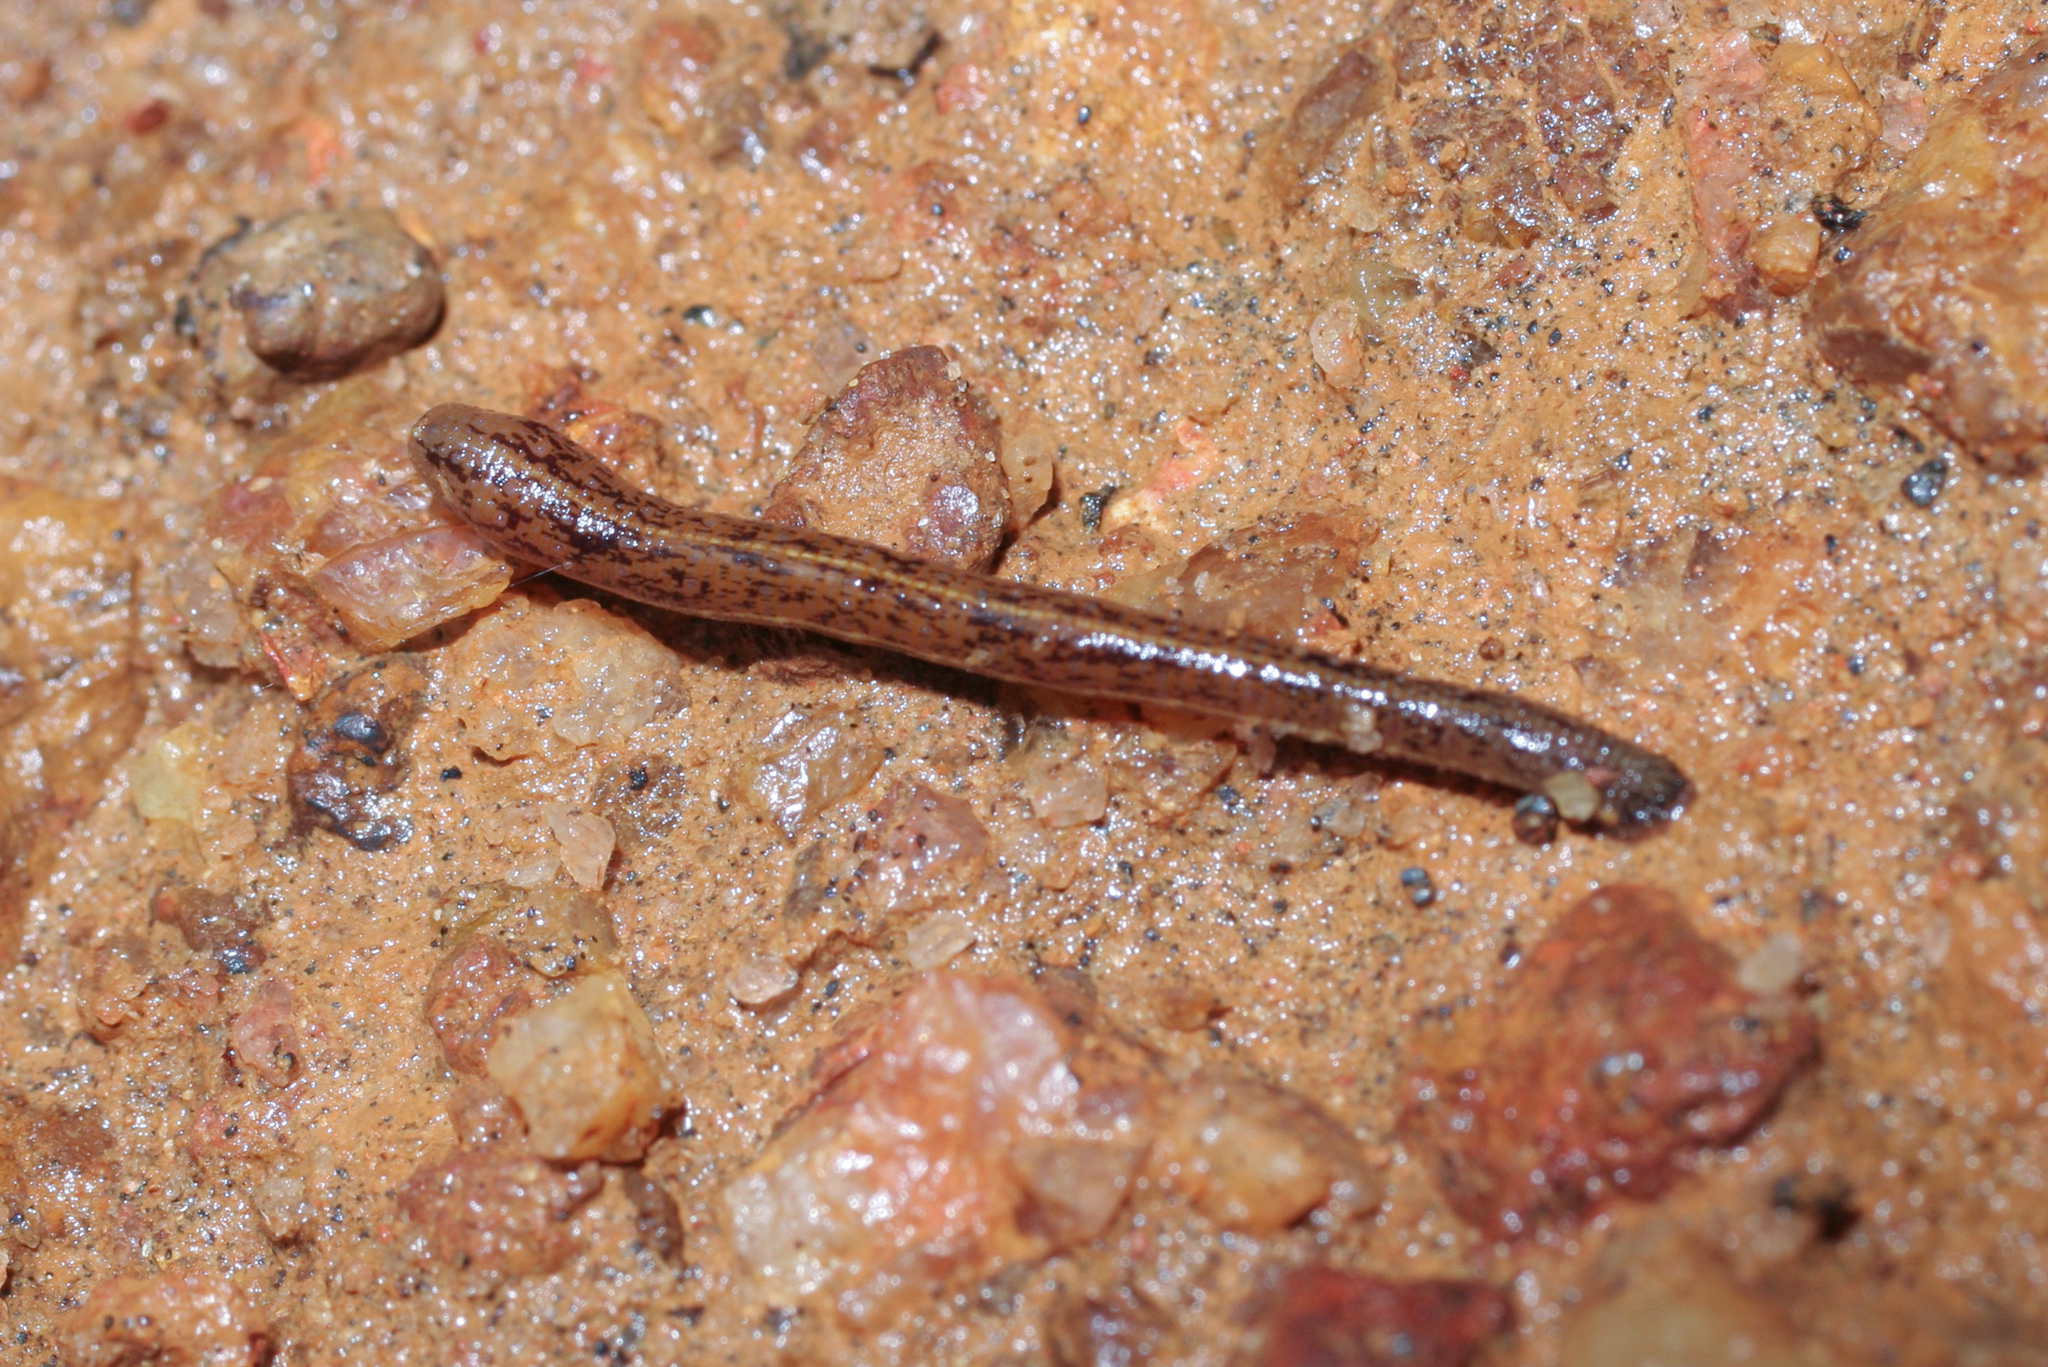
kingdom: Animalia
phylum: Annelida
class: Clitellata
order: Arhynchobdellida
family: Haemadipsidae
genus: Haemadipsa
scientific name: Haemadipsa zeylanica
